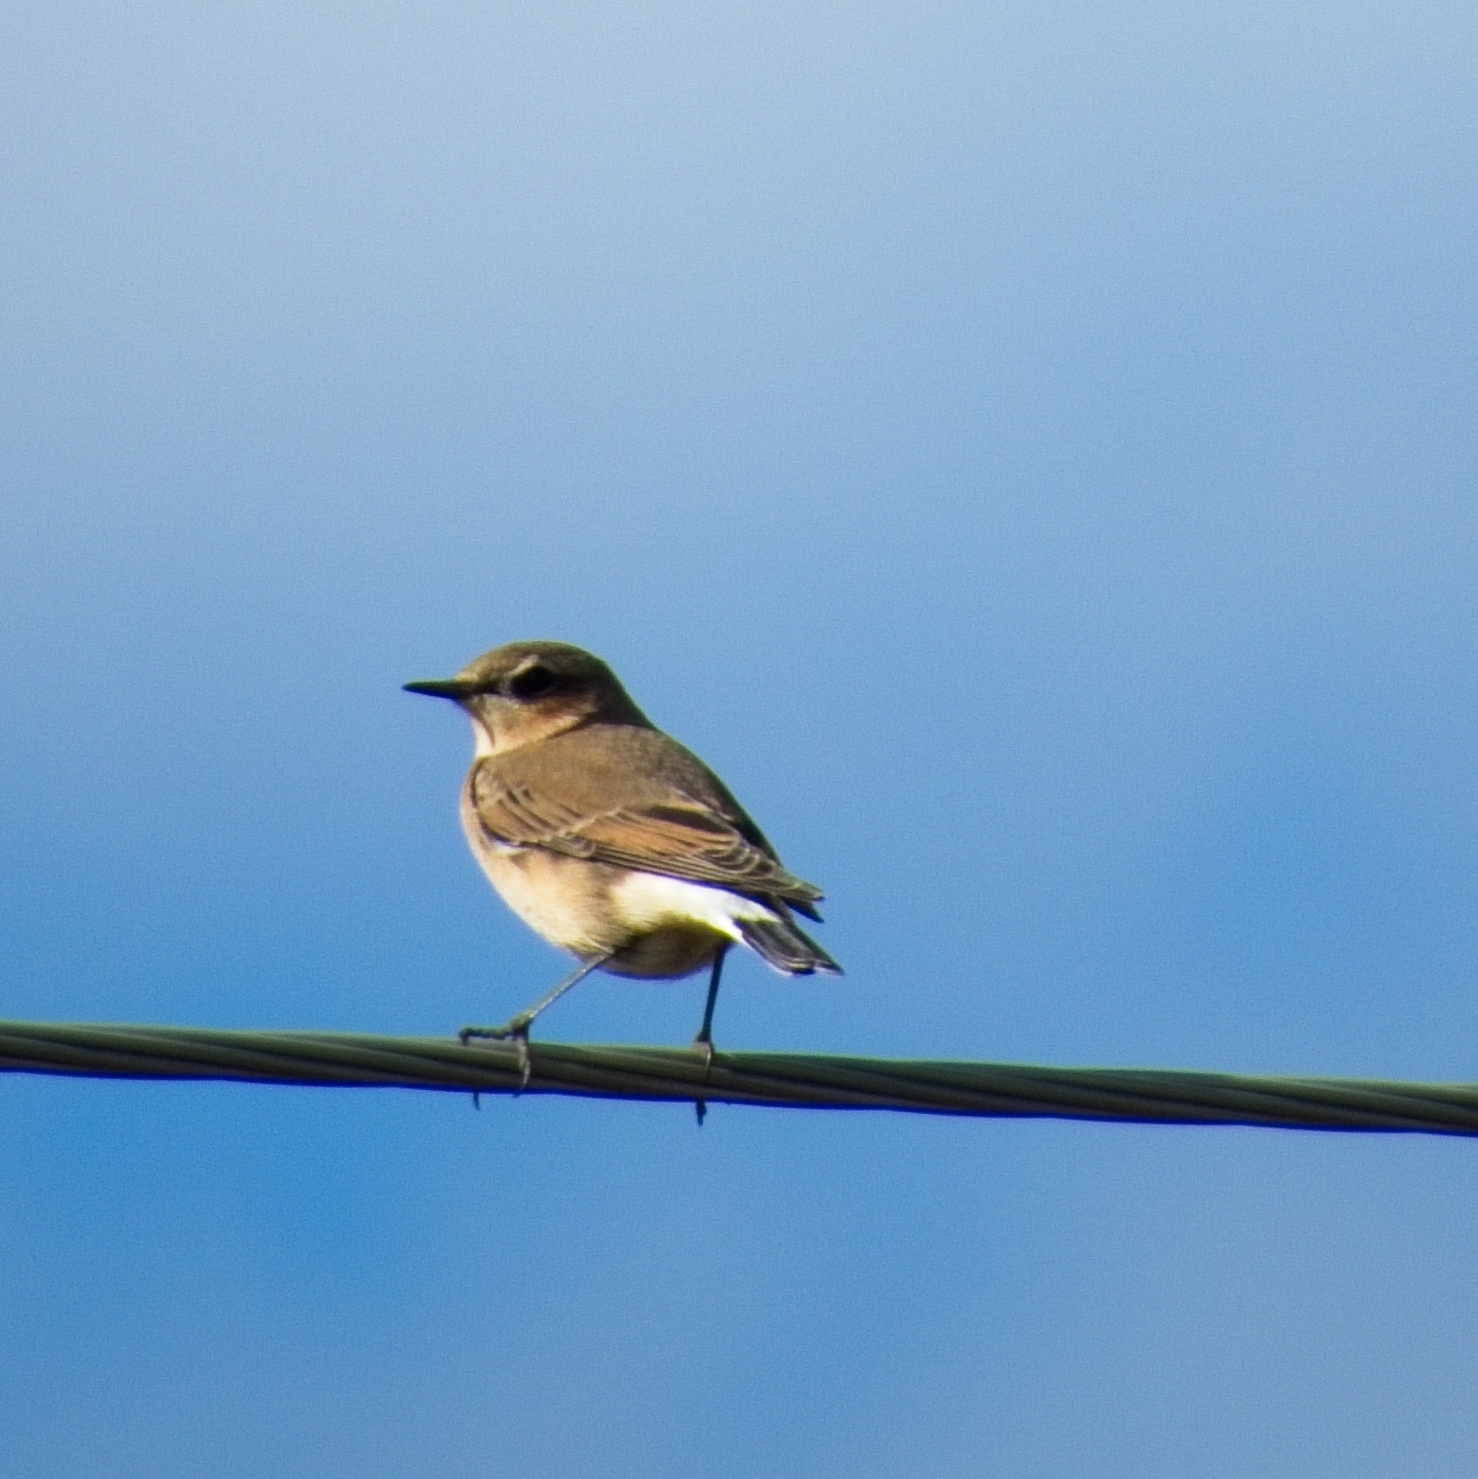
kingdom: Animalia
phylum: Chordata
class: Aves
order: Passeriformes
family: Muscicapidae
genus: Oenanthe
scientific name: Oenanthe oenanthe
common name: Northern wheatear
